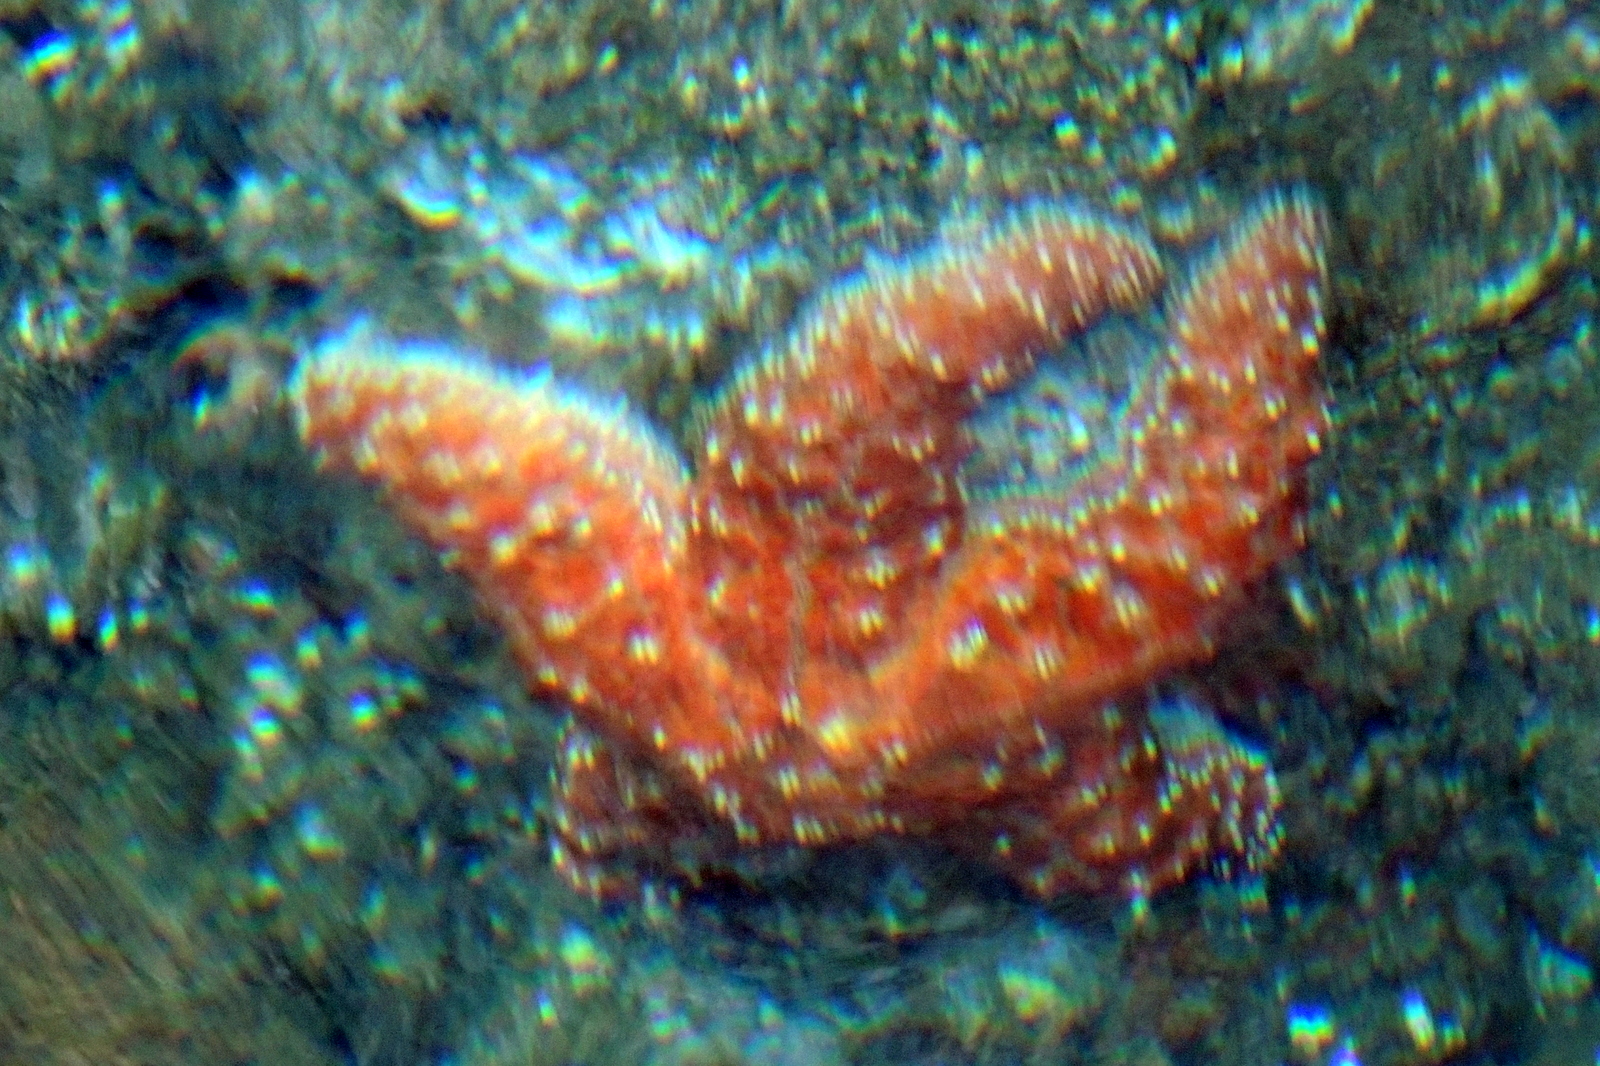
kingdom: Animalia
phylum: Echinodermata
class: Asteroidea
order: Forcipulatida
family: Asteriidae
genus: Pisaster
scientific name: Pisaster ochraceus
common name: Ochre stars
